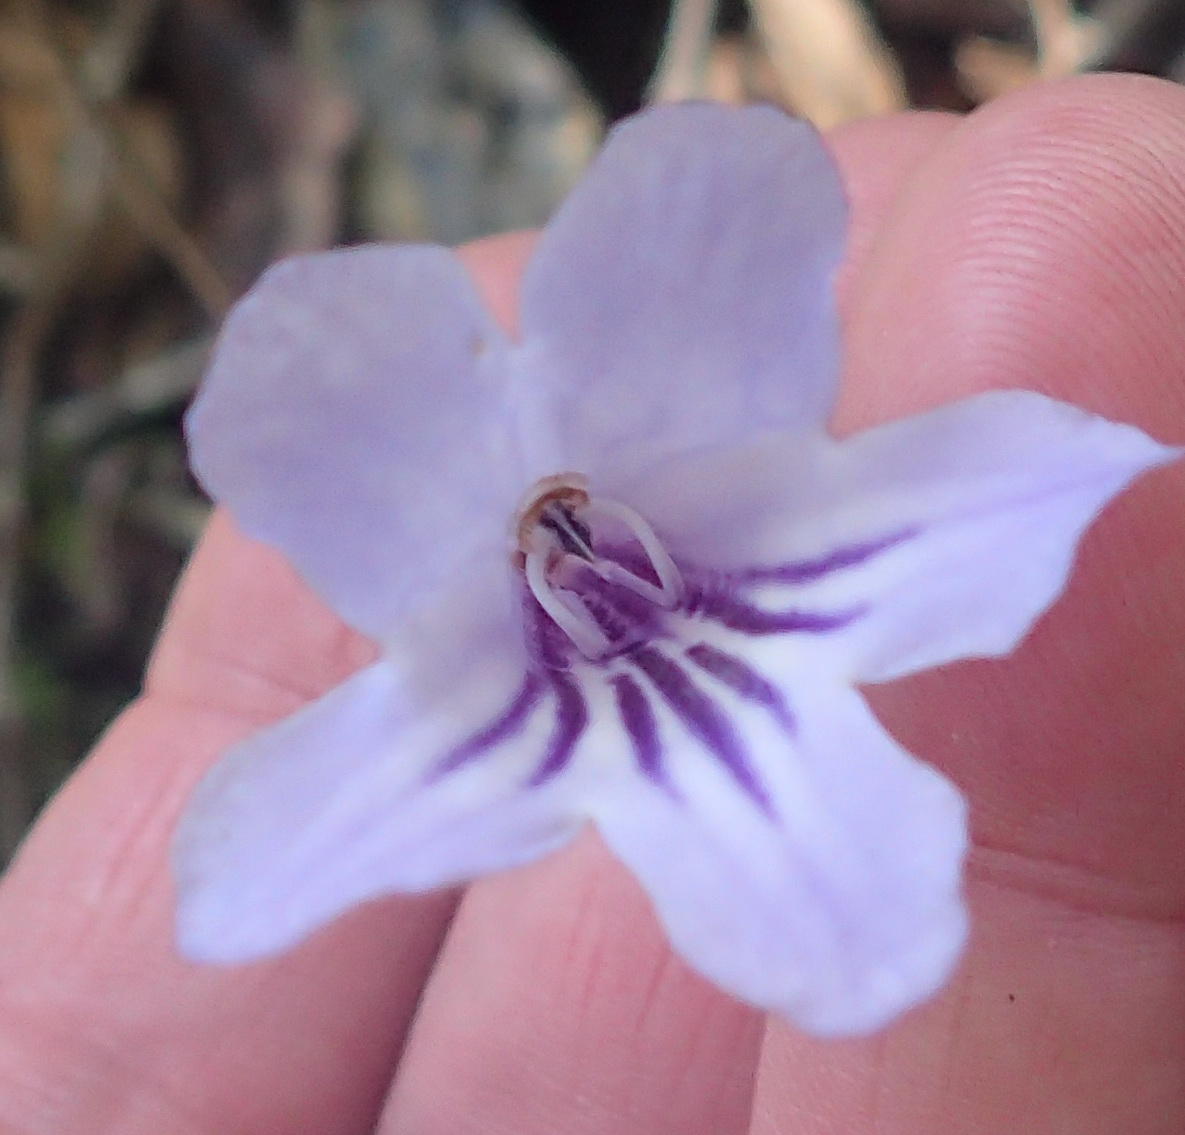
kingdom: Plantae
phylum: Tracheophyta
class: Magnoliopsida
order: Lamiales
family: Gesneriaceae
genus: Streptocarpus
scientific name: Streptocarpus rexii
